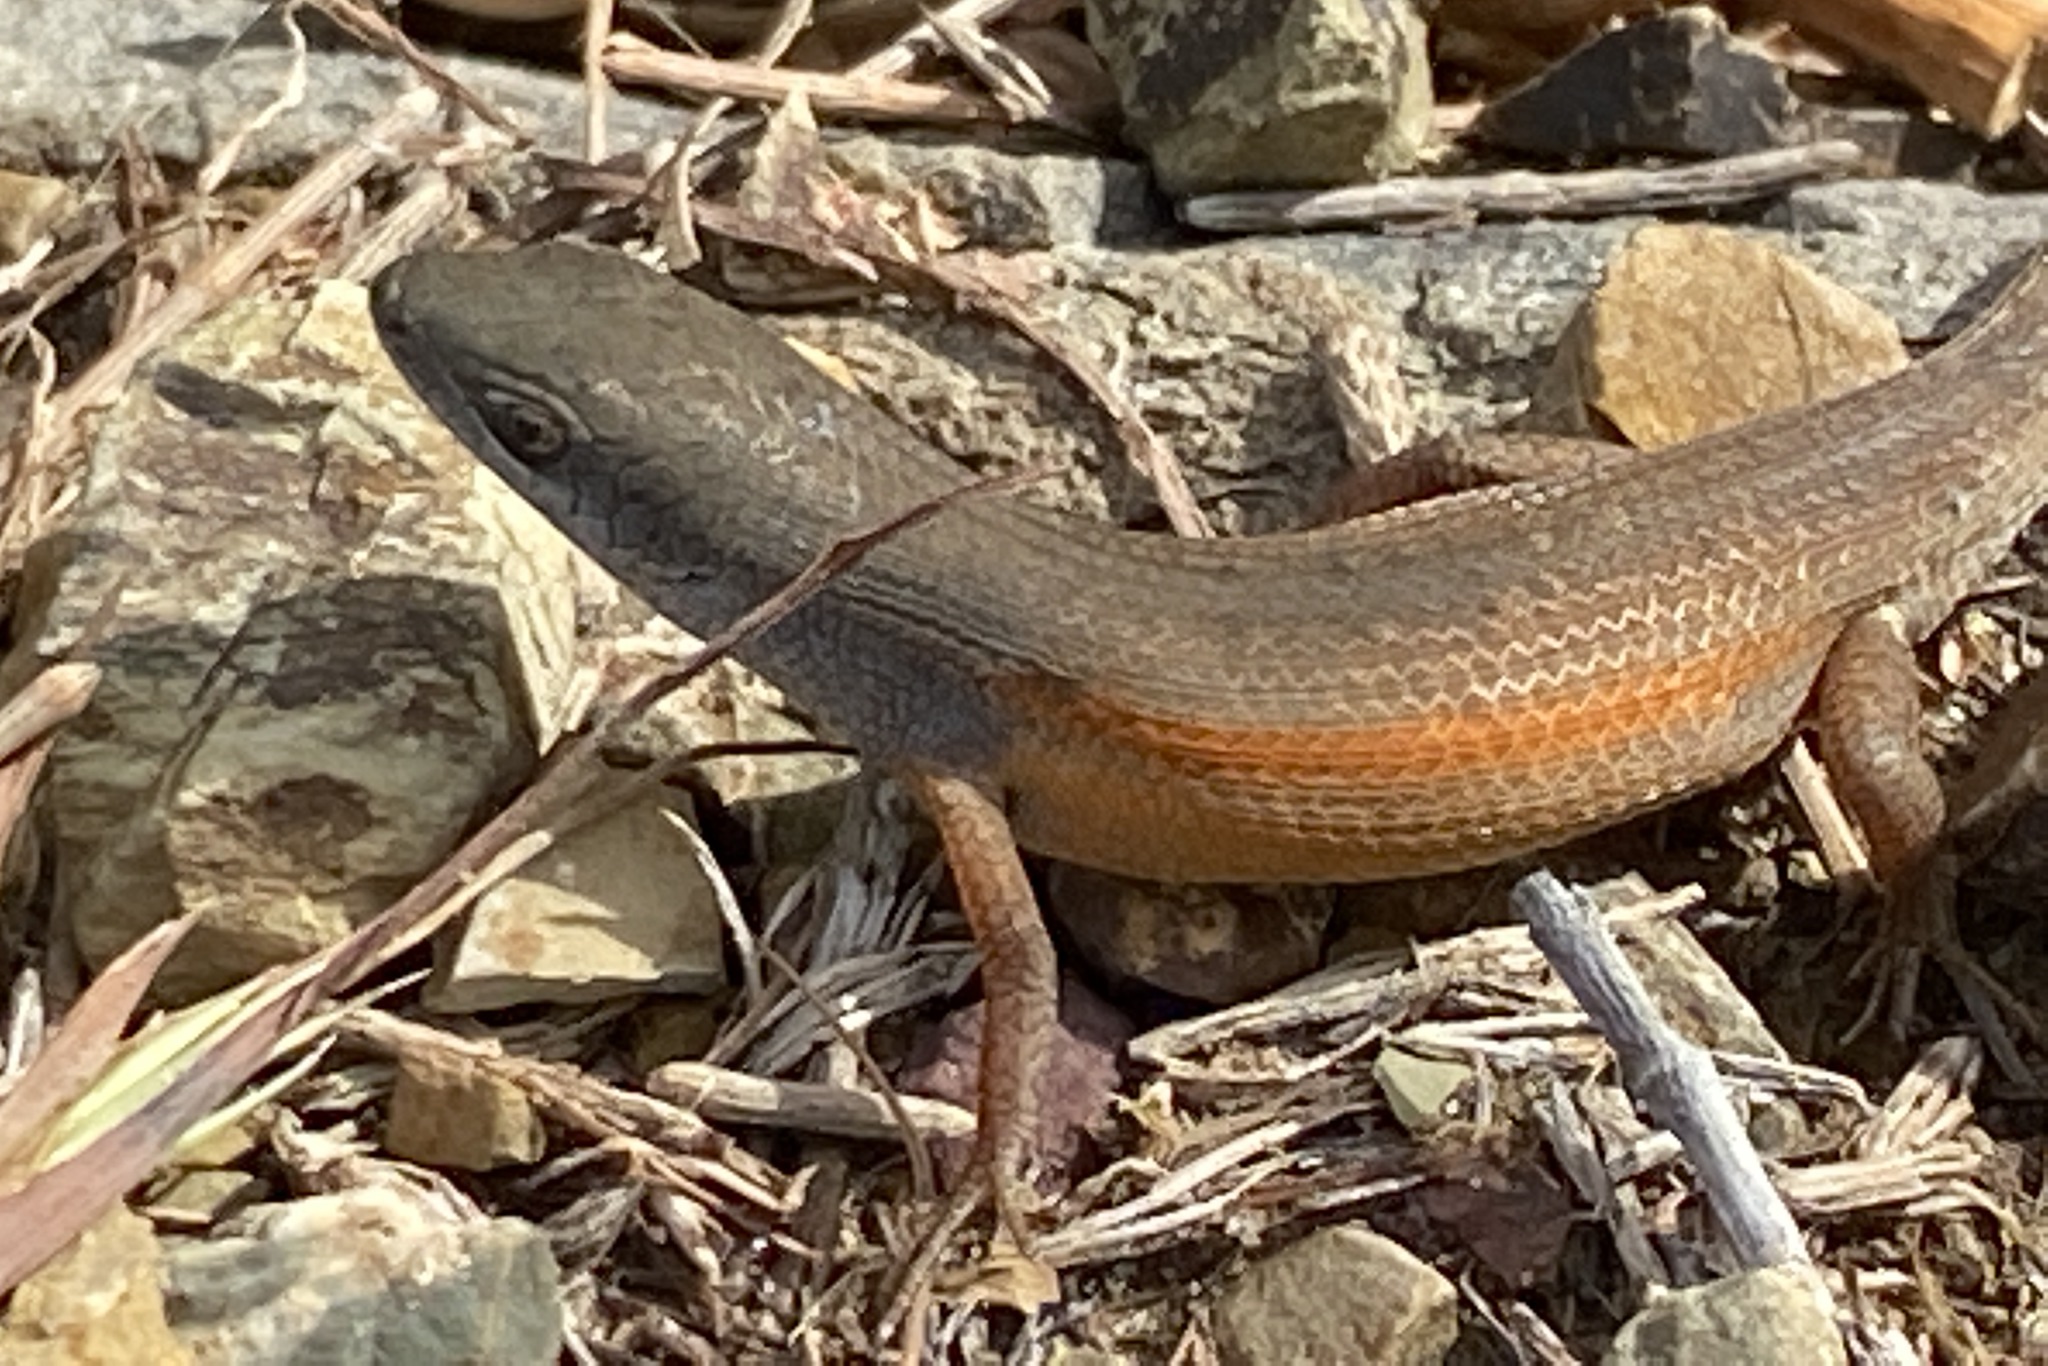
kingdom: Animalia
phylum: Chordata
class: Squamata
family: Scincidae
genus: Carlia
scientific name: Carlia pectoralis
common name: Open-litter rainbow-skink
